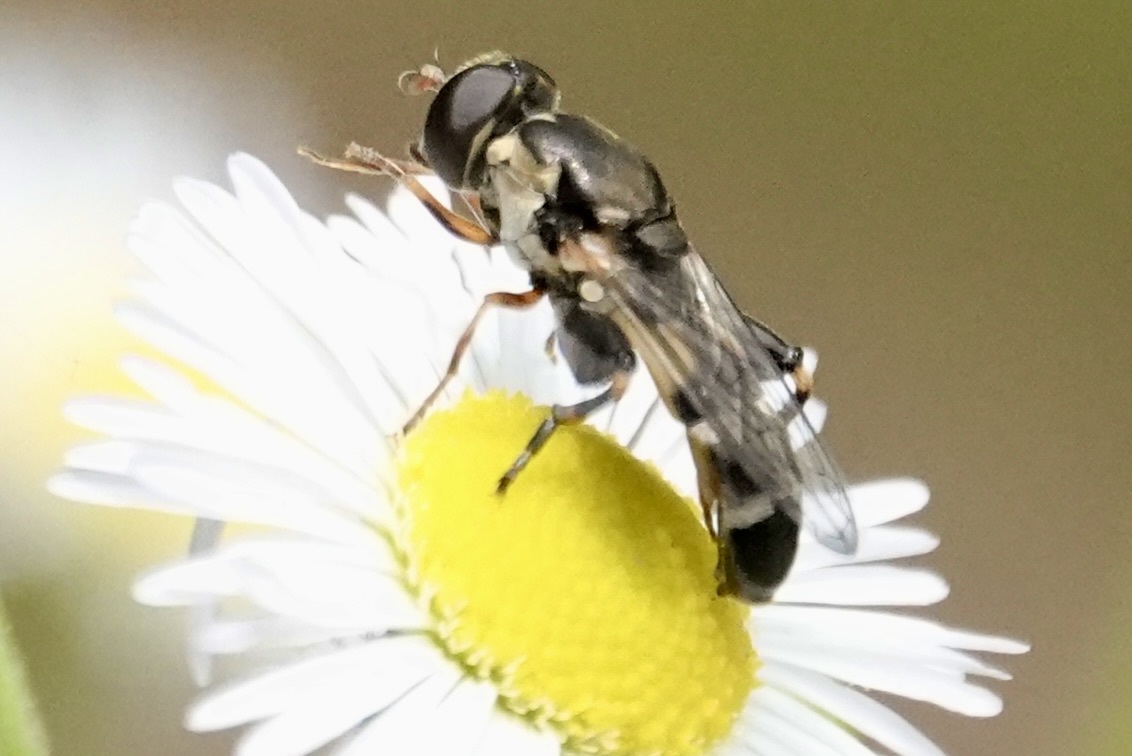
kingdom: Animalia
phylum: Arthropoda
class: Insecta
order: Diptera
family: Syrphidae
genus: Syritta
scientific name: Syritta pipiens
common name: Hover fly
